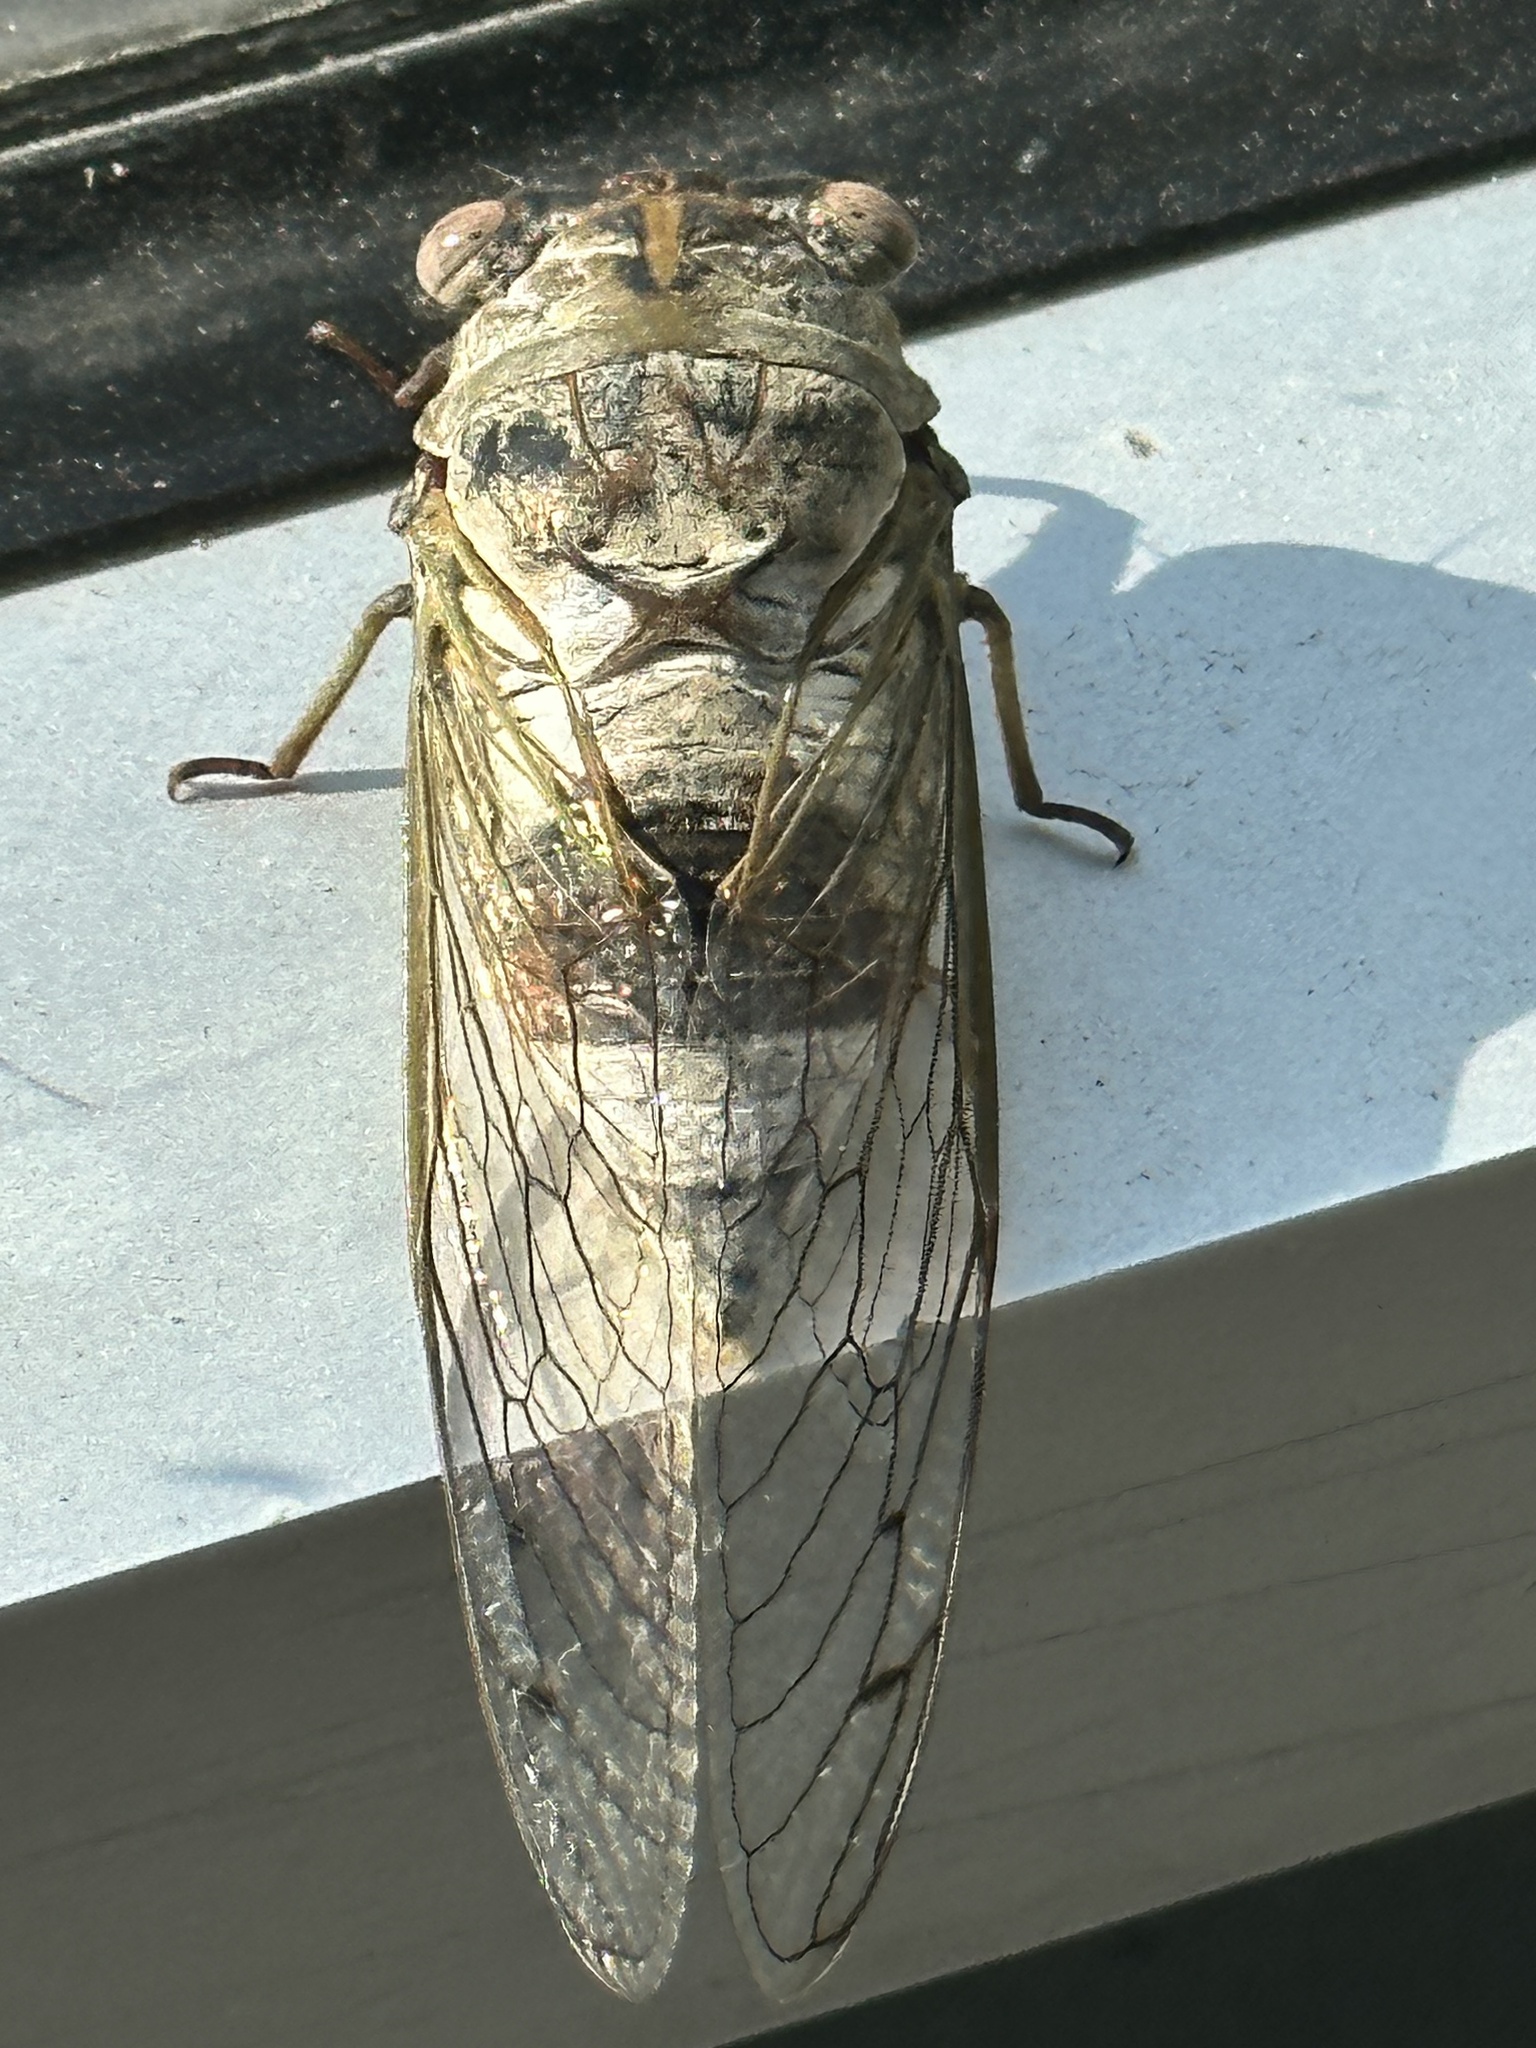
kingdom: Animalia
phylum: Arthropoda
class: Insecta
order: Hemiptera
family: Cicadidae
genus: Diceroprocta
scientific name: Diceroprocta grossa
